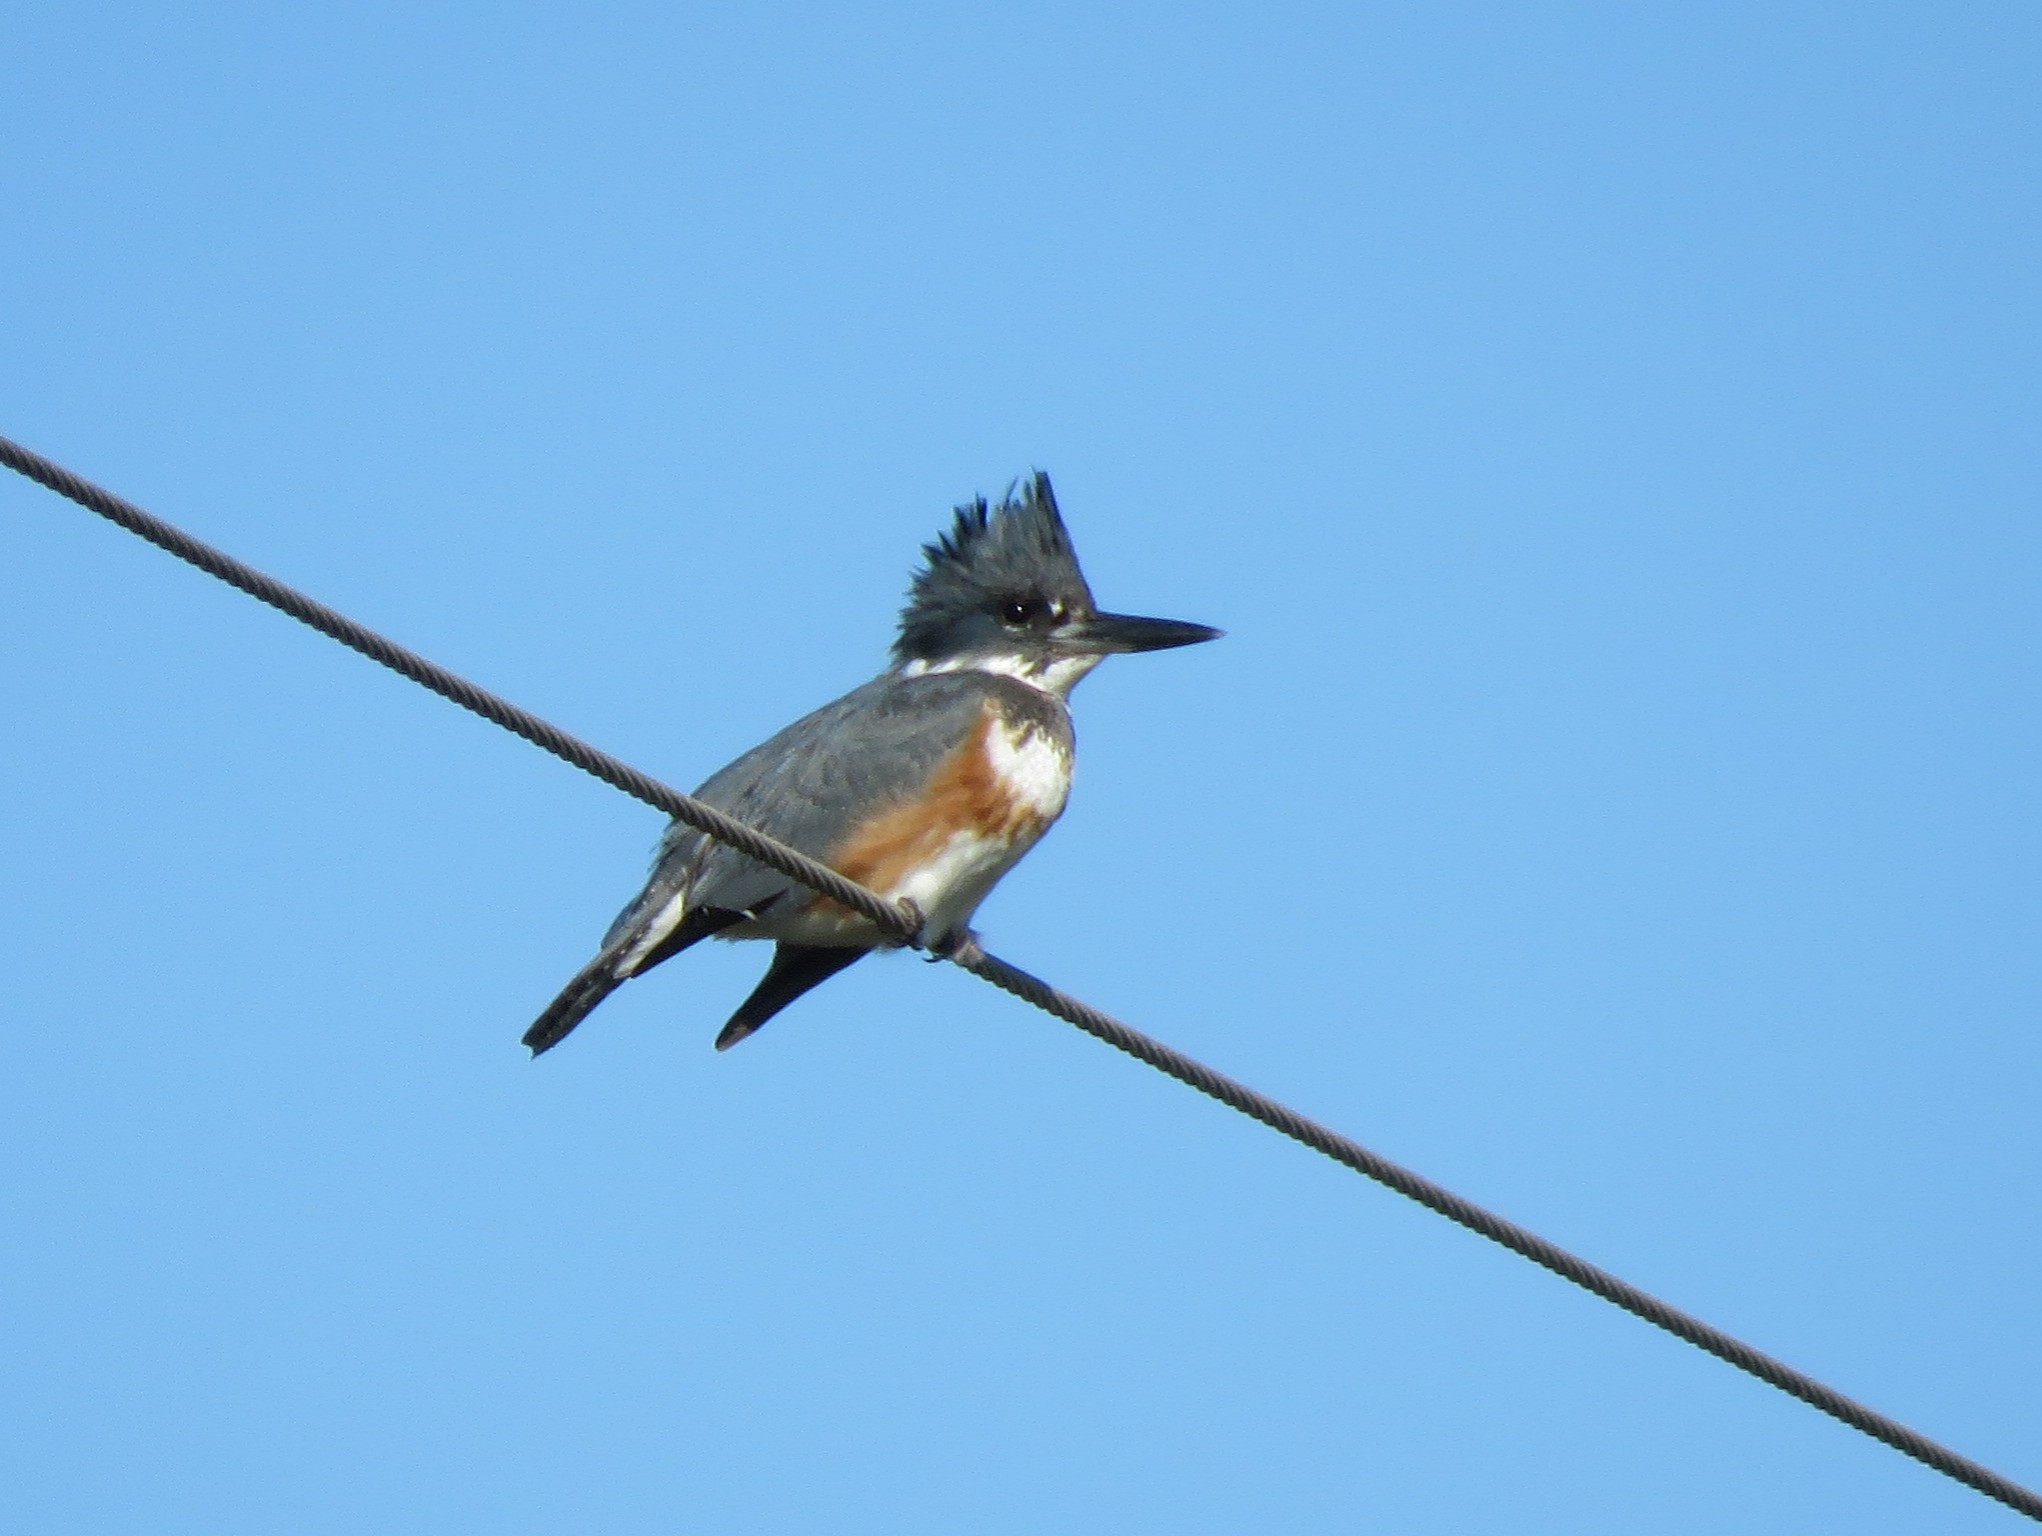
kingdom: Animalia
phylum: Chordata
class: Aves
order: Coraciiformes
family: Alcedinidae
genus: Megaceryle
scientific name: Megaceryle alcyon
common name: Belted kingfisher
